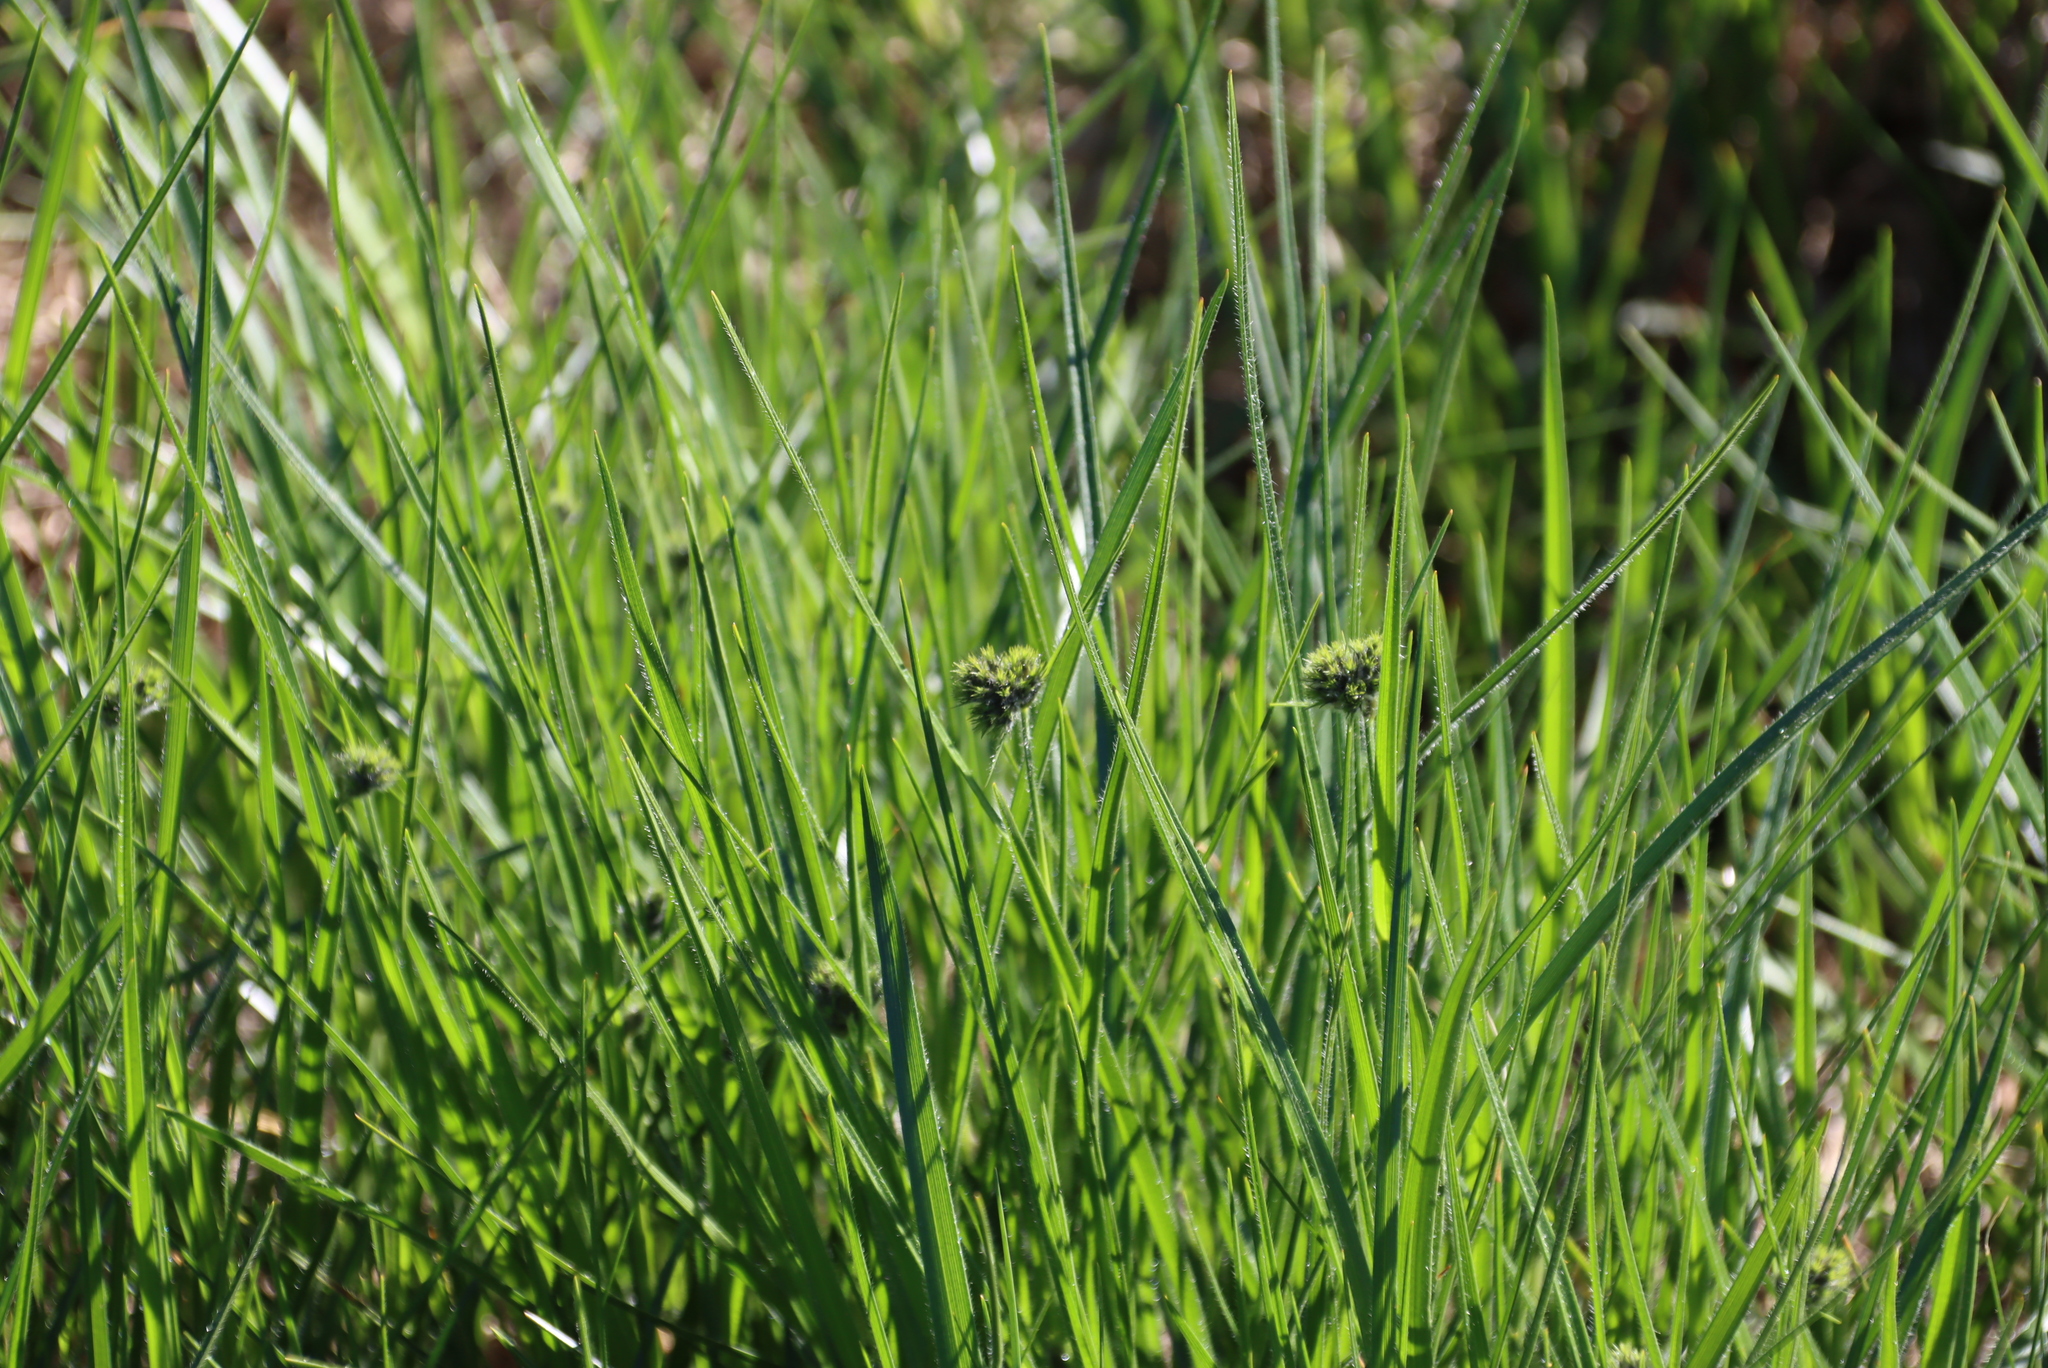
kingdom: Plantae
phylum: Tracheophyta
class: Liliopsida
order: Poales
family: Cyperaceae
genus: Fuirena
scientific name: Fuirena hirsuta
